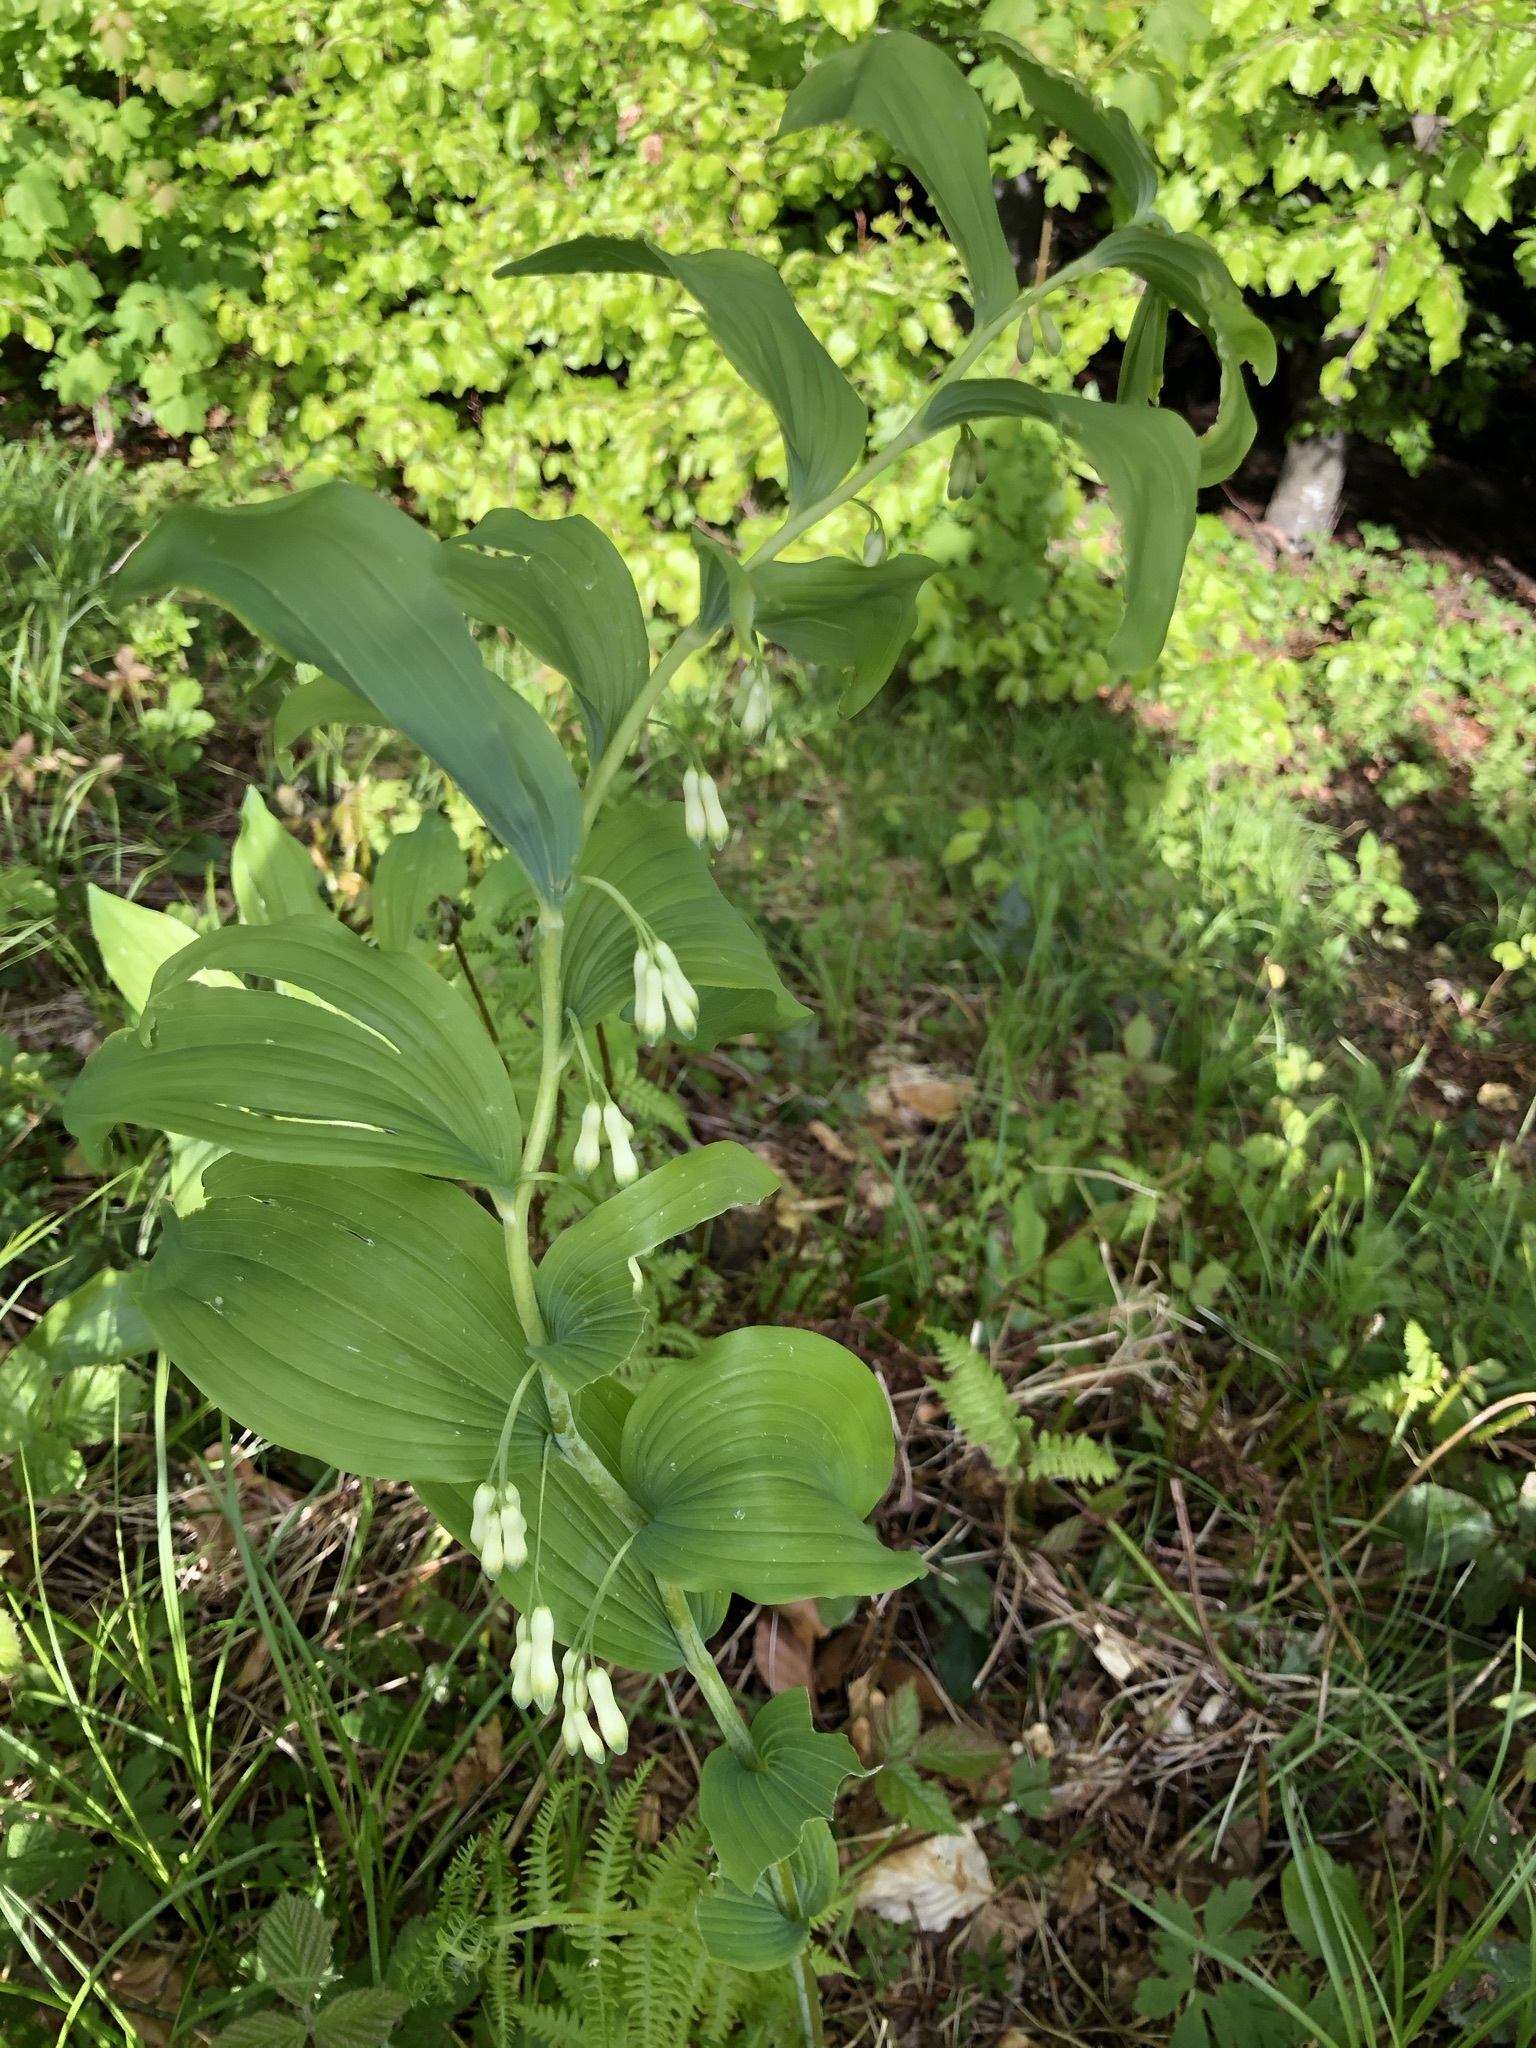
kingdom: Plantae
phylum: Tracheophyta
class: Liliopsida
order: Asparagales
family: Asparagaceae
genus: Polygonatum
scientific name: Polygonatum multiflorum
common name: Solomon's-seal
